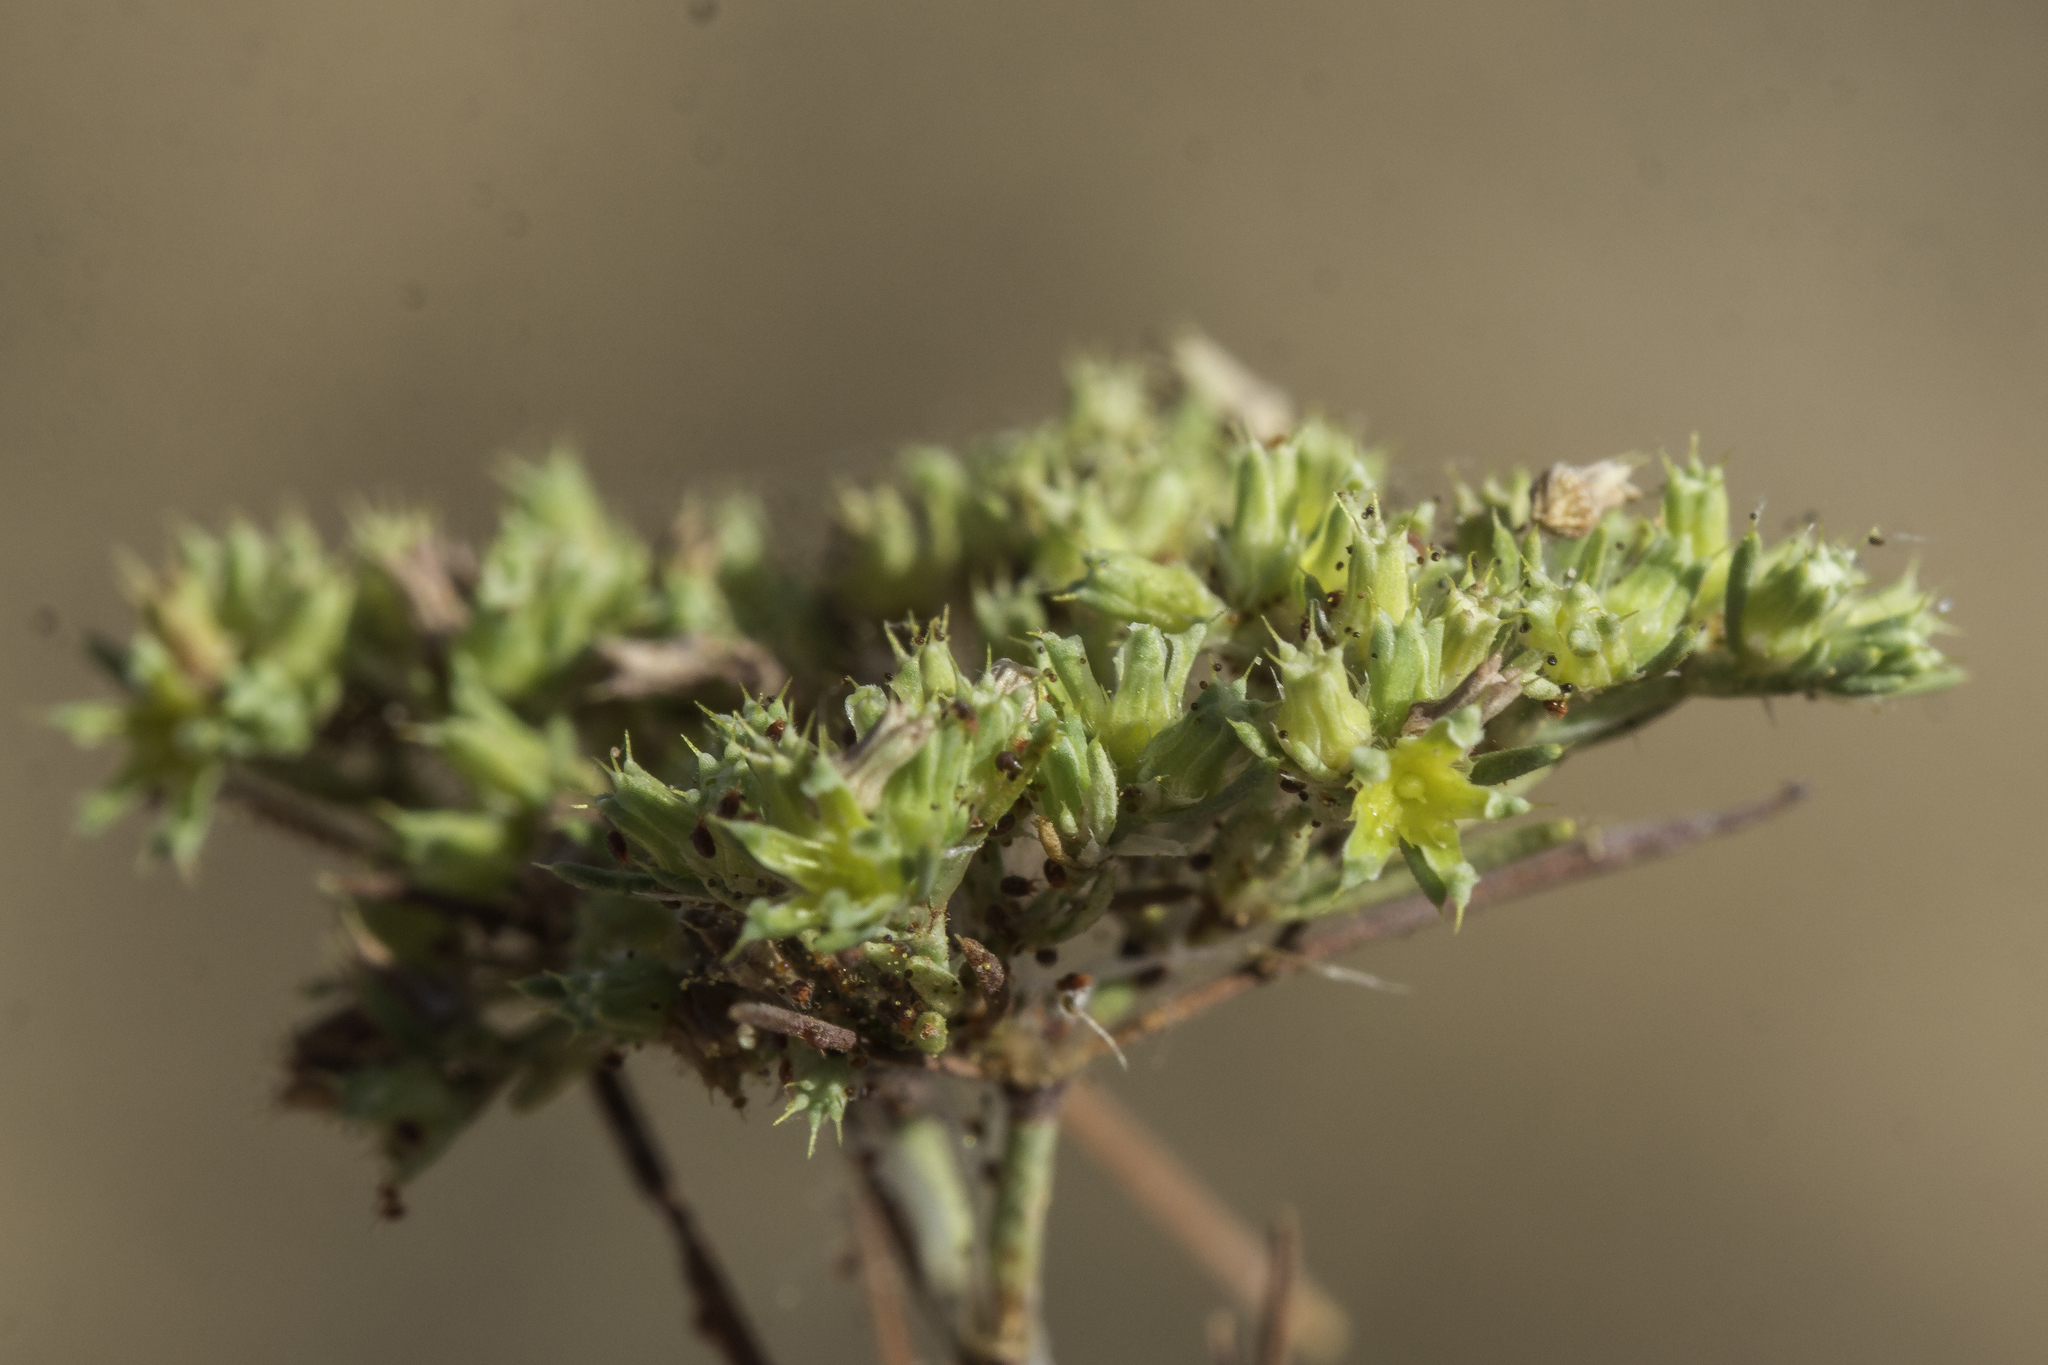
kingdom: Plantae
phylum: Tracheophyta
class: Magnoliopsida
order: Caryophyllales
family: Caryophyllaceae
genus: Paronychia
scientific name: Paronychia jamesii
